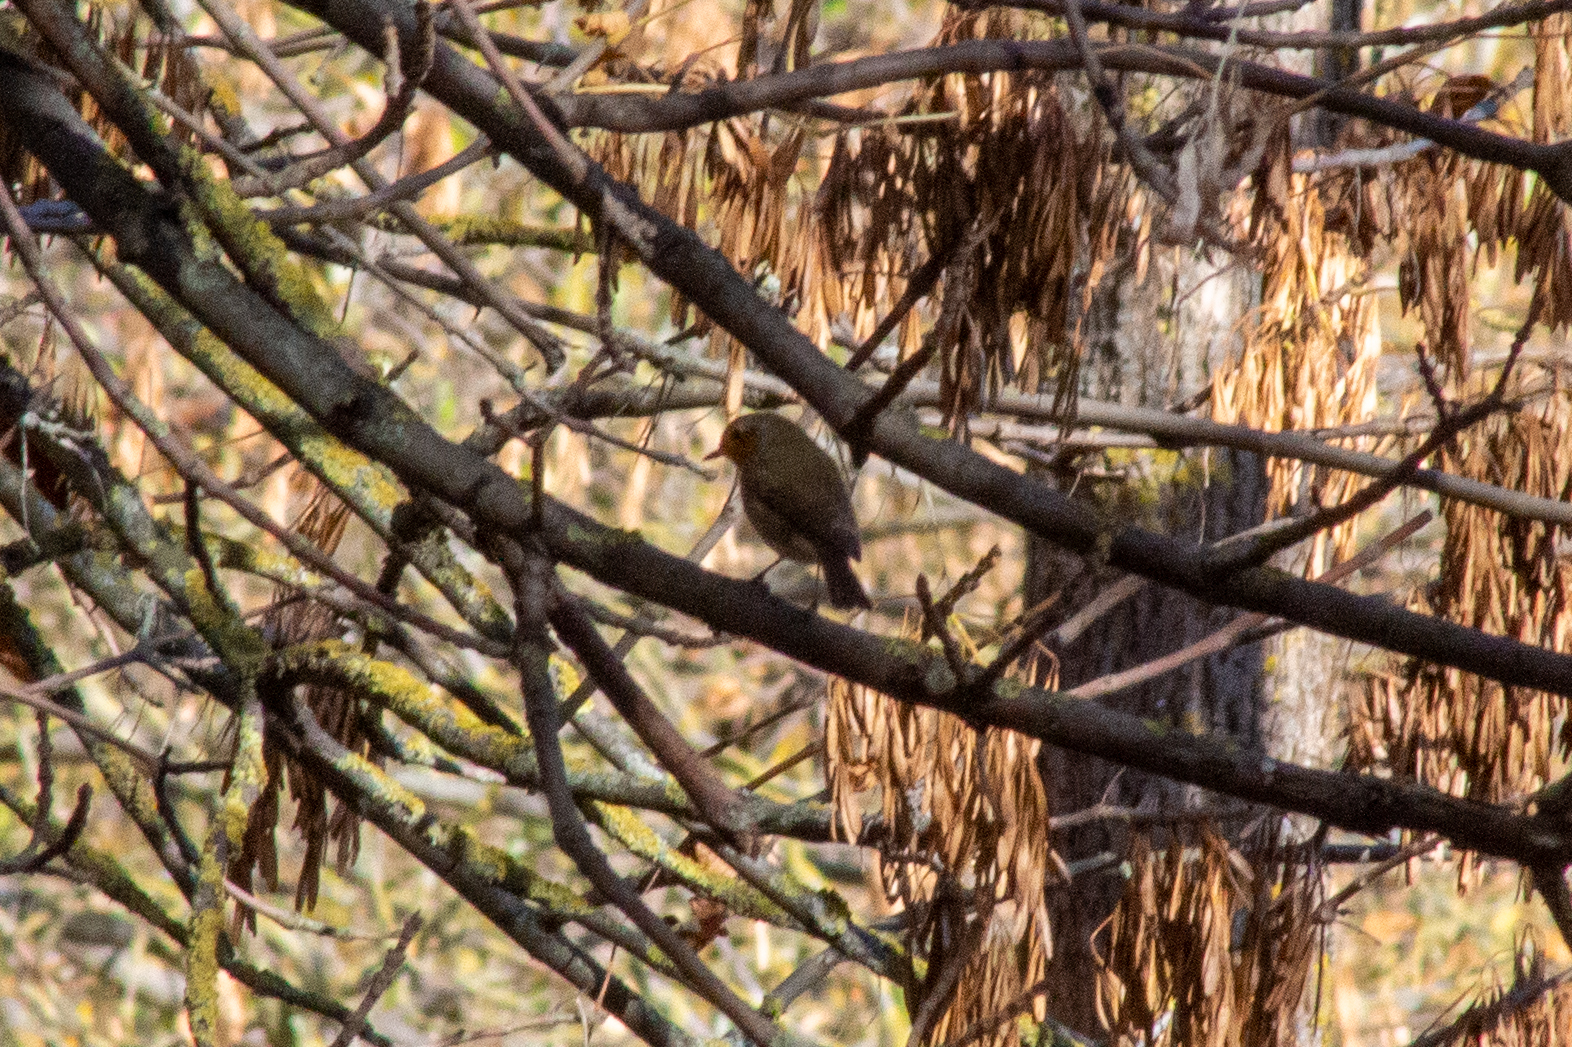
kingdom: Animalia
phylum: Chordata
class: Aves
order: Passeriformes
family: Muscicapidae
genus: Erithacus
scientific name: Erithacus rubecula
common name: European robin
